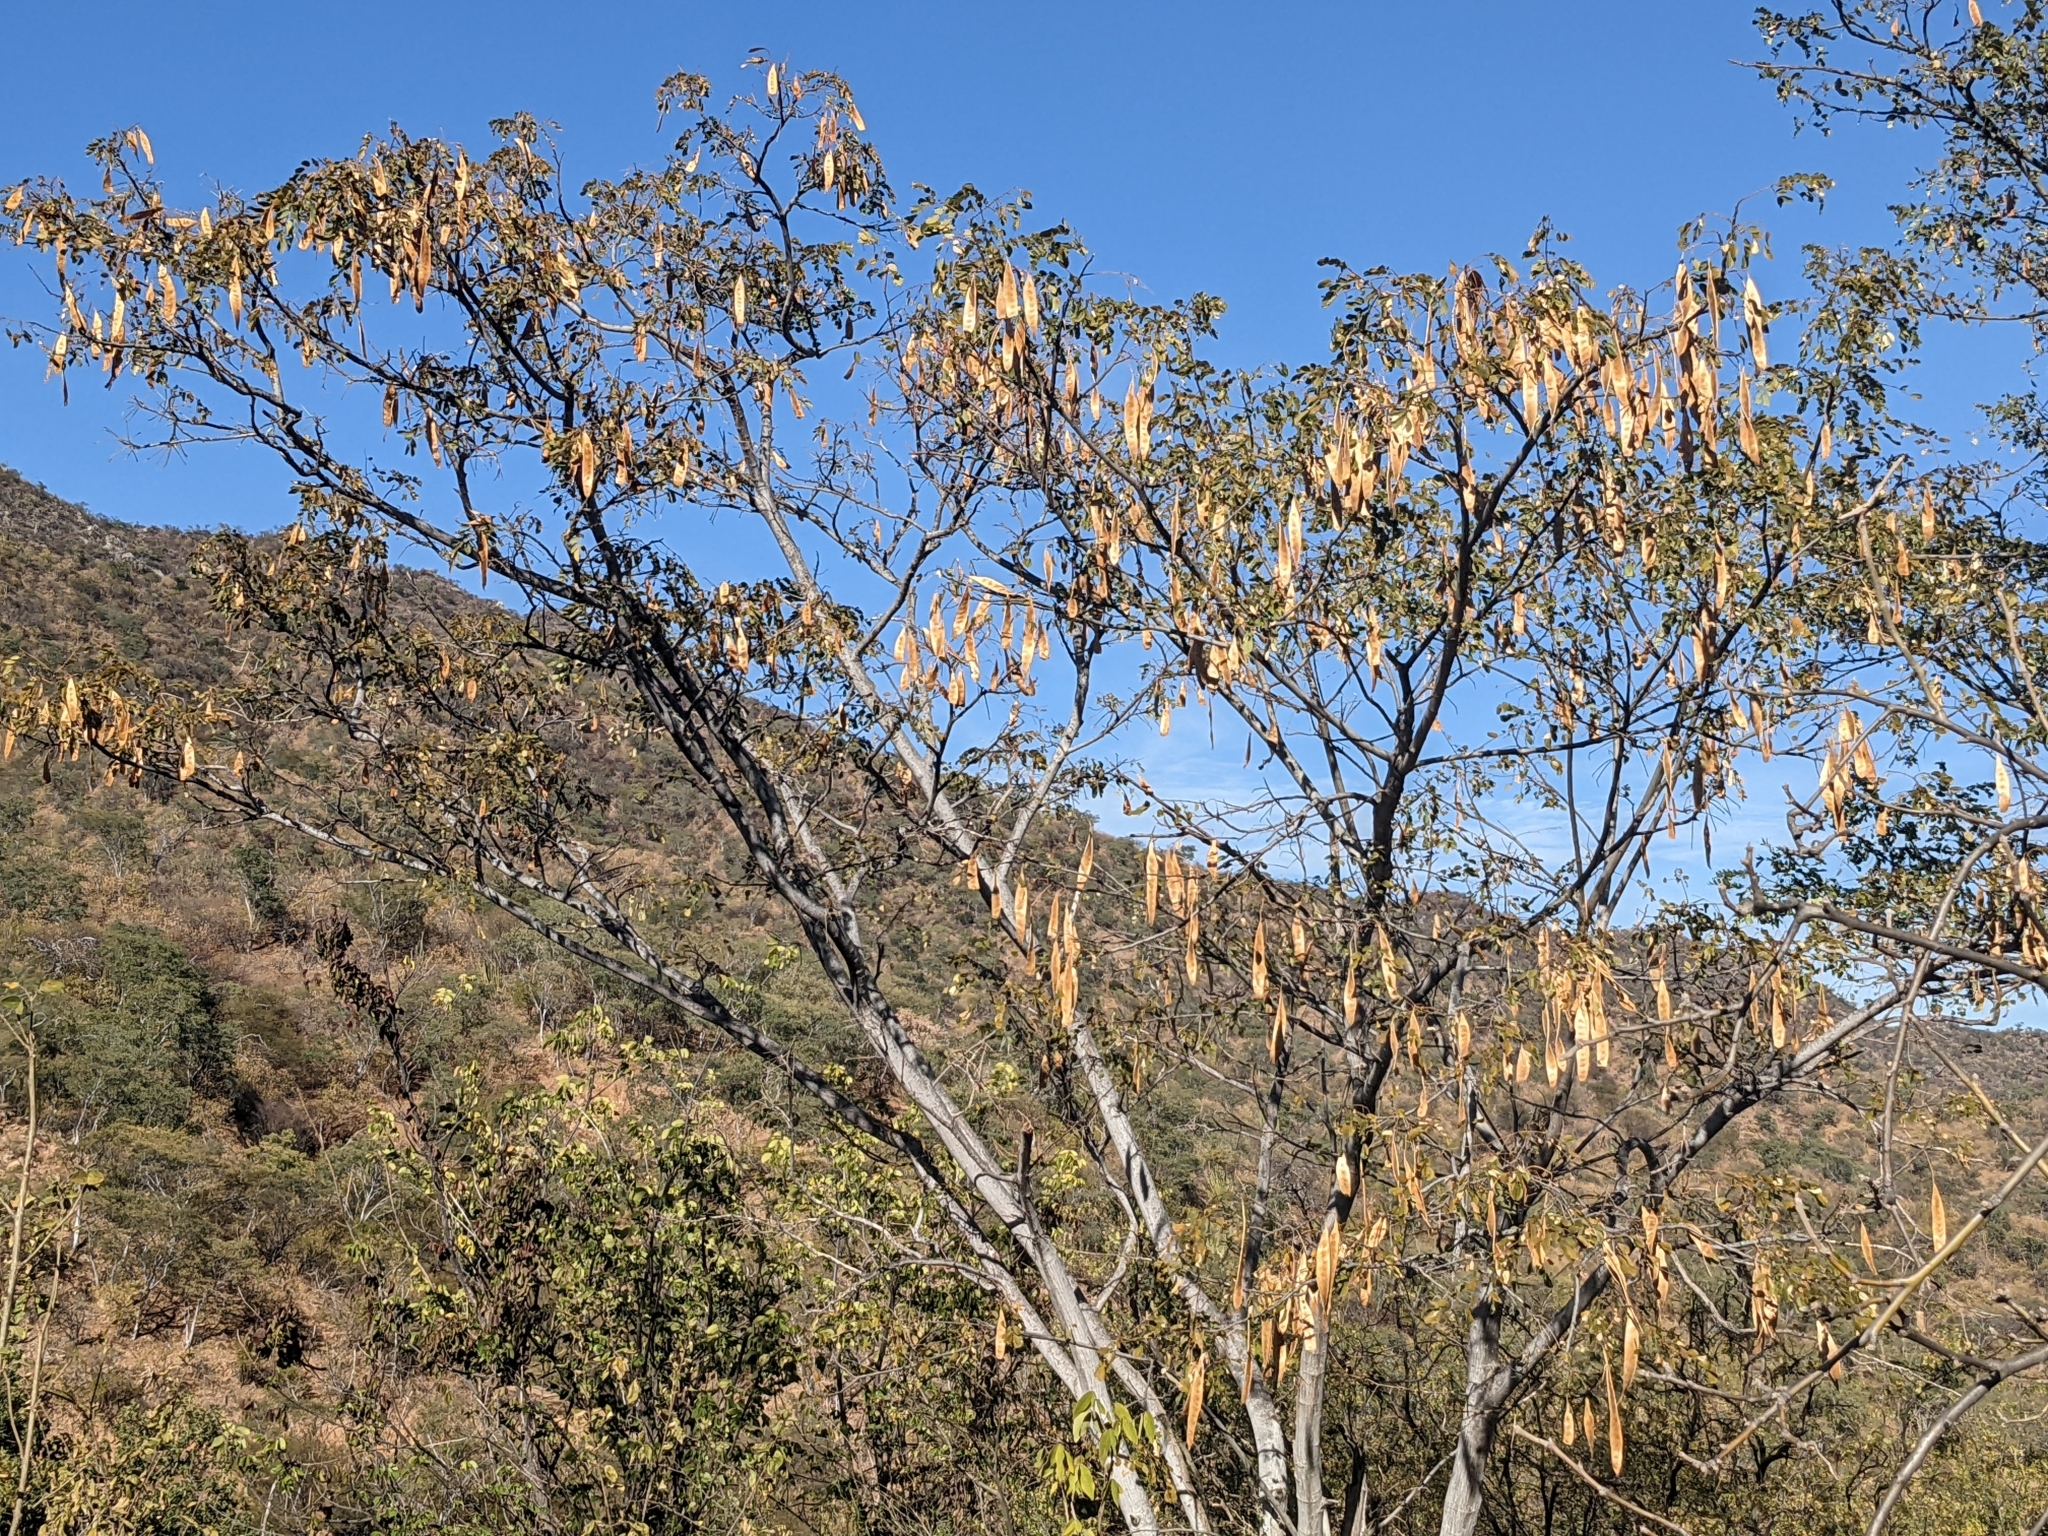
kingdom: Plantae
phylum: Tracheophyta
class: Magnoliopsida
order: Fabales
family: Fabaceae
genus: Albizia
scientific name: Albizia occidentalis
